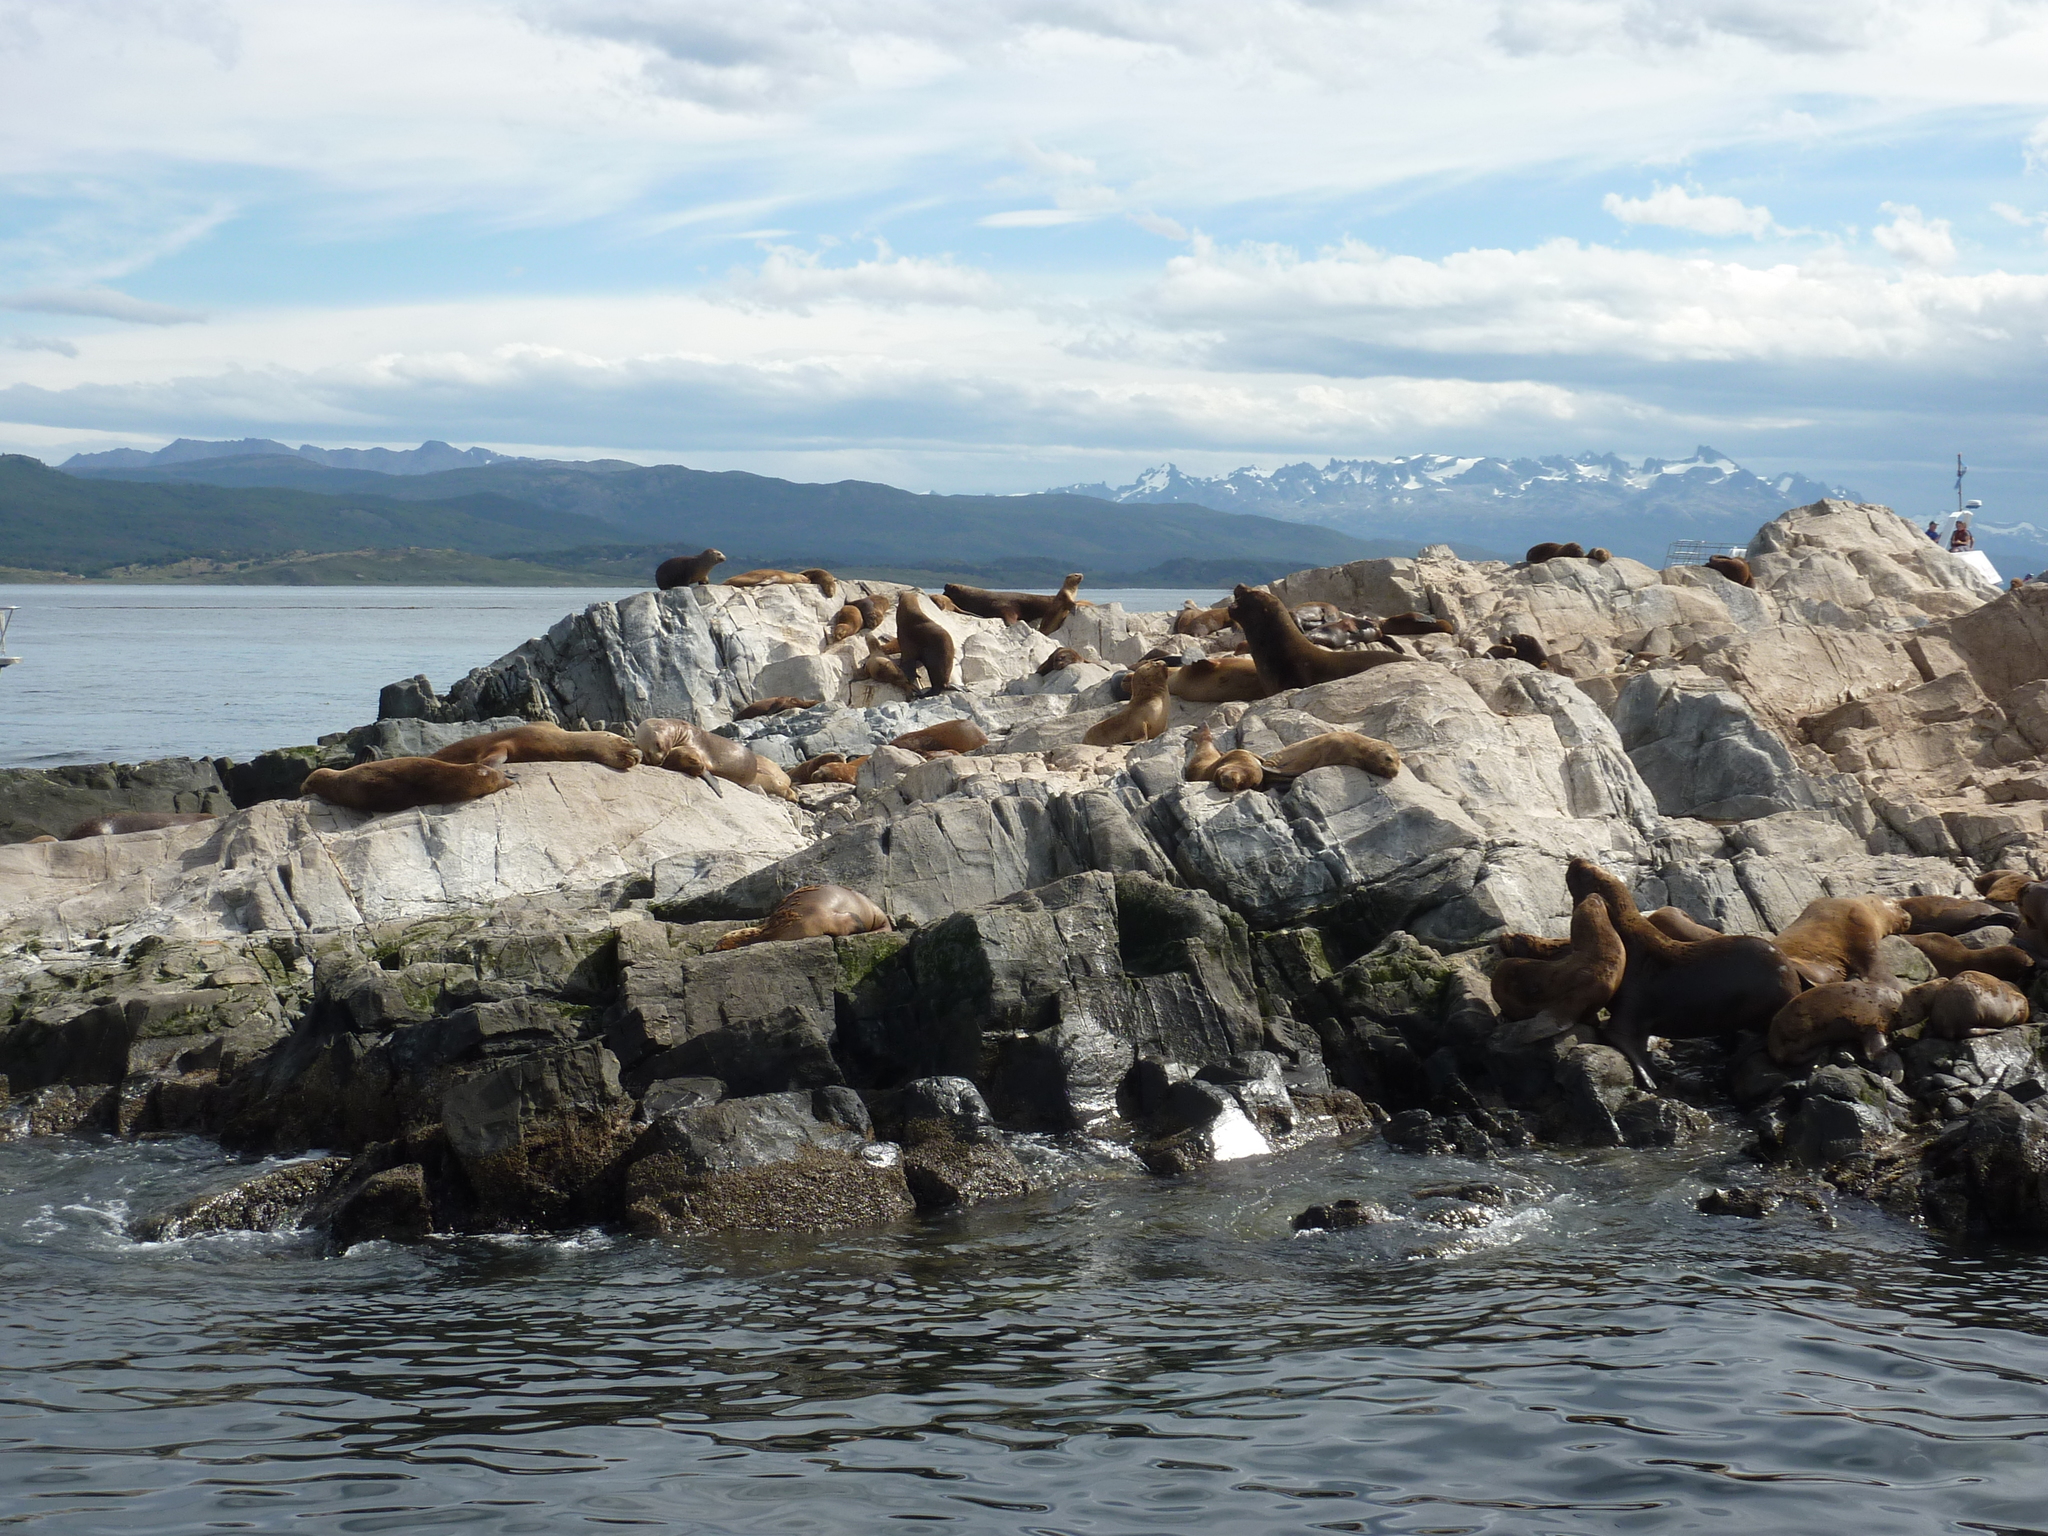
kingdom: Animalia
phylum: Chordata
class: Mammalia
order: Carnivora
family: Otariidae
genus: Otaria
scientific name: Otaria byronia
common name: South american sea lion
